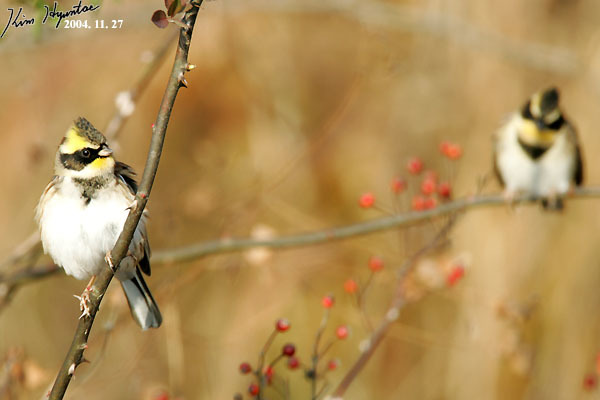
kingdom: Animalia
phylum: Chordata
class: Aves
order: Passeriformes
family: Emberizidae
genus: Emberiza
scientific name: Emberiza elegans
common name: Yellow-throated bunting
